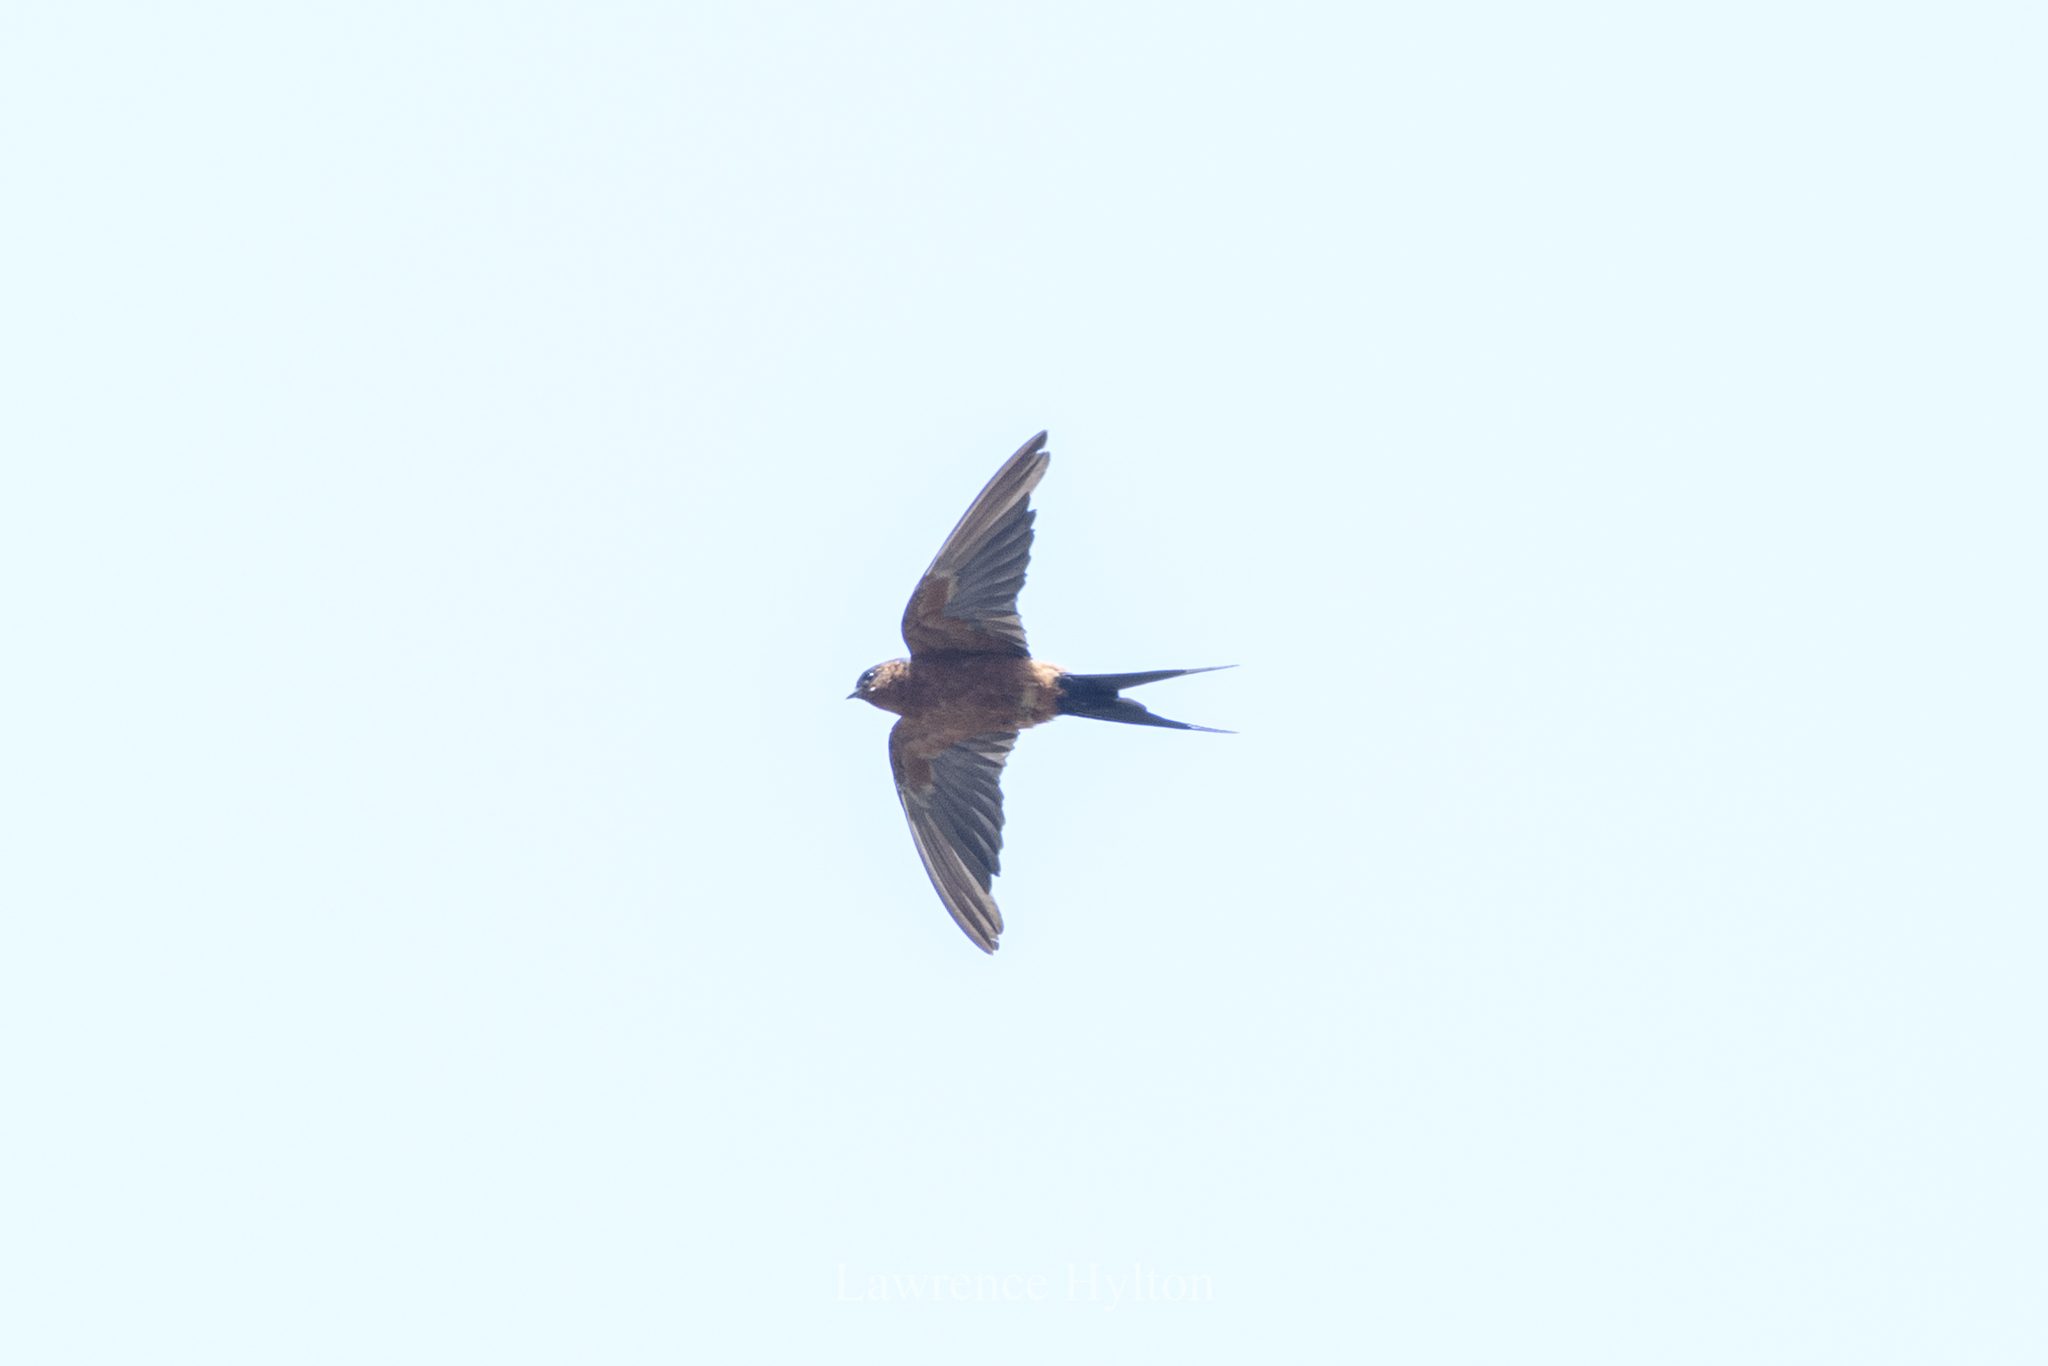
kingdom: Animalia
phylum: Chordata
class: Aves
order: Passeriformes
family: Hirundinidae
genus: Cecropis
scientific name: Cecropis badia
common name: Rufous-bellied swallow
